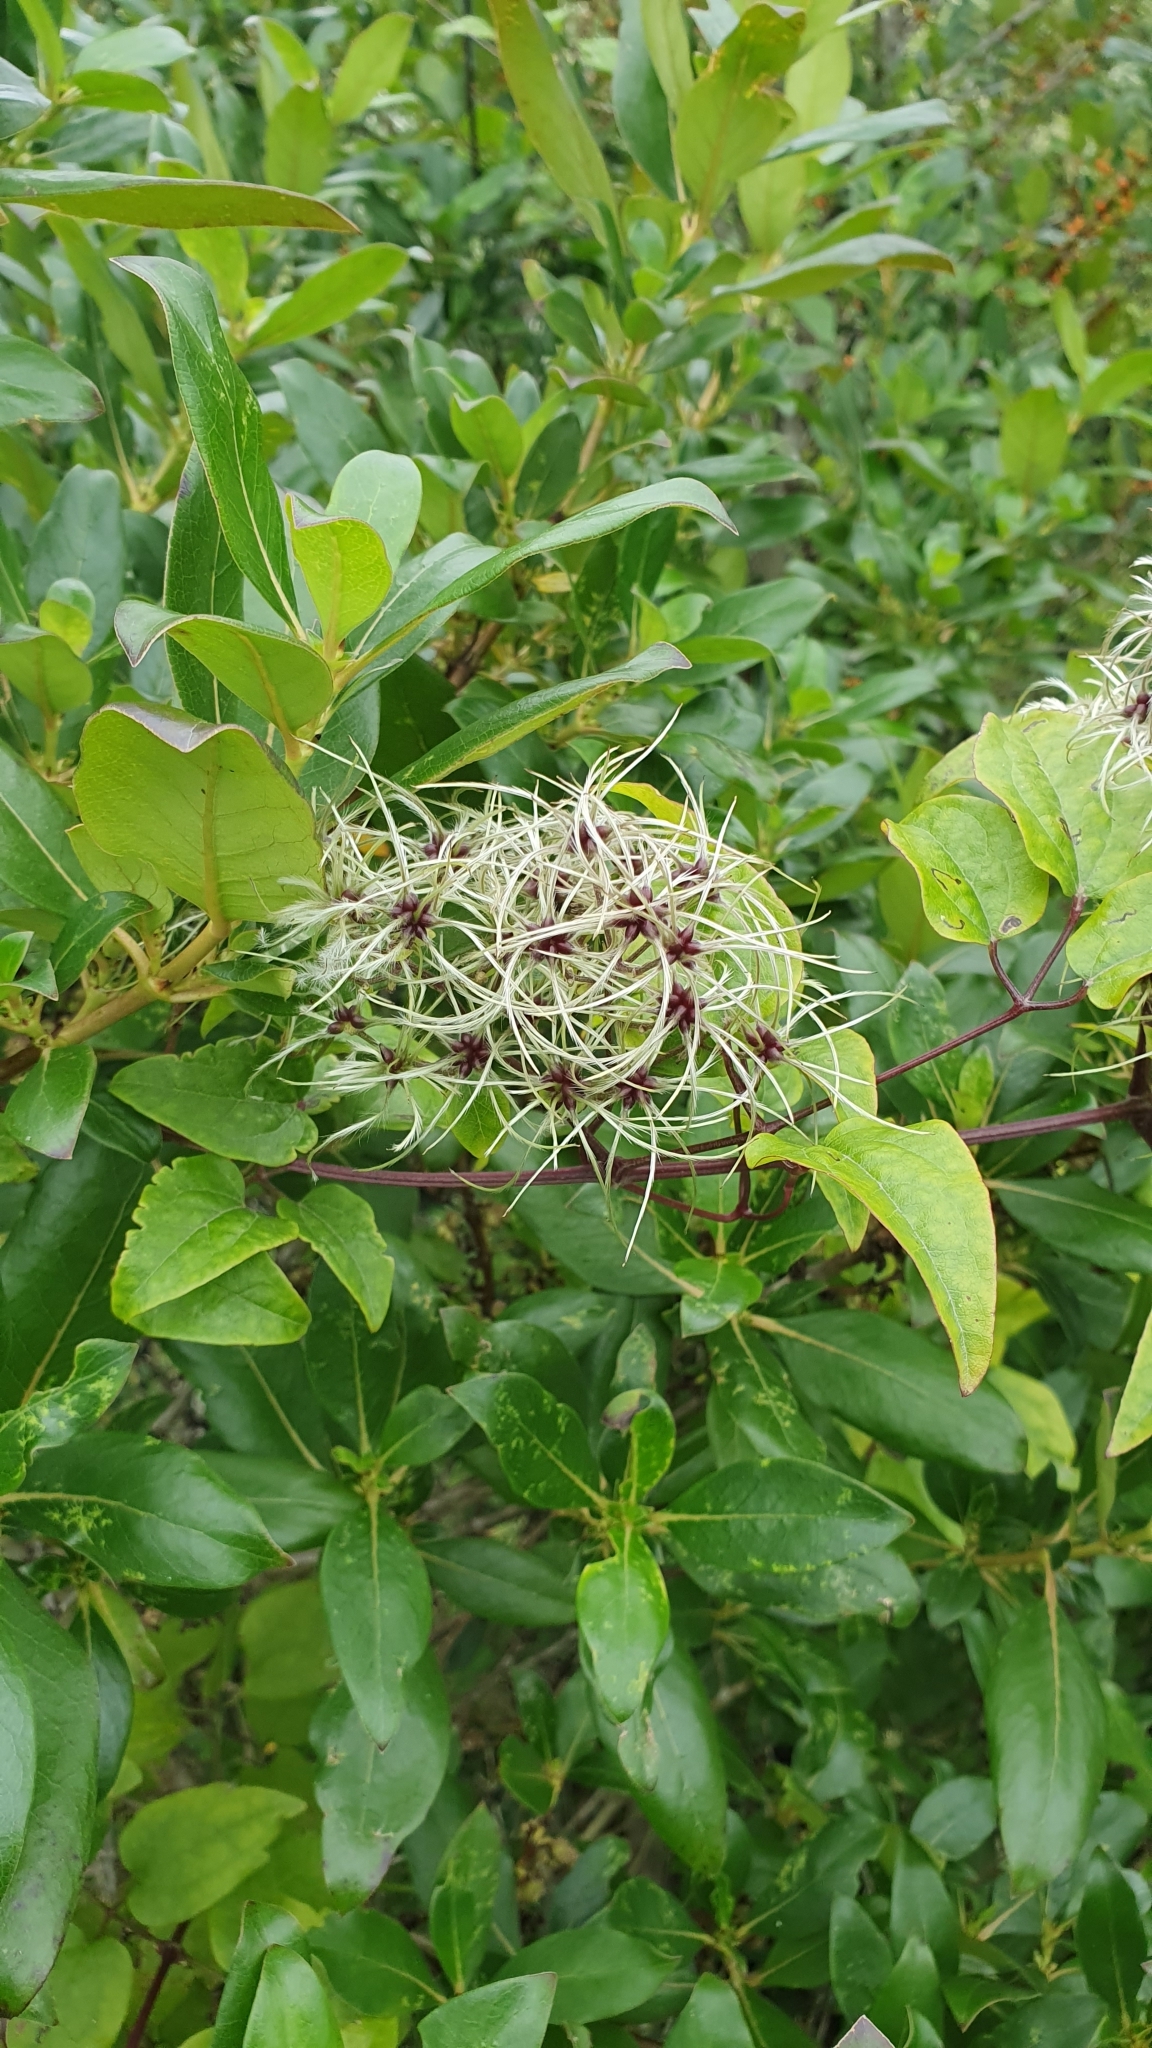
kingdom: Plantae
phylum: Tracheophyta
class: Magnoliopsida
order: Ranunculales
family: Ranunculaceae
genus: Clematis
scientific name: Clematis vitalba
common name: Evergreen clematis
